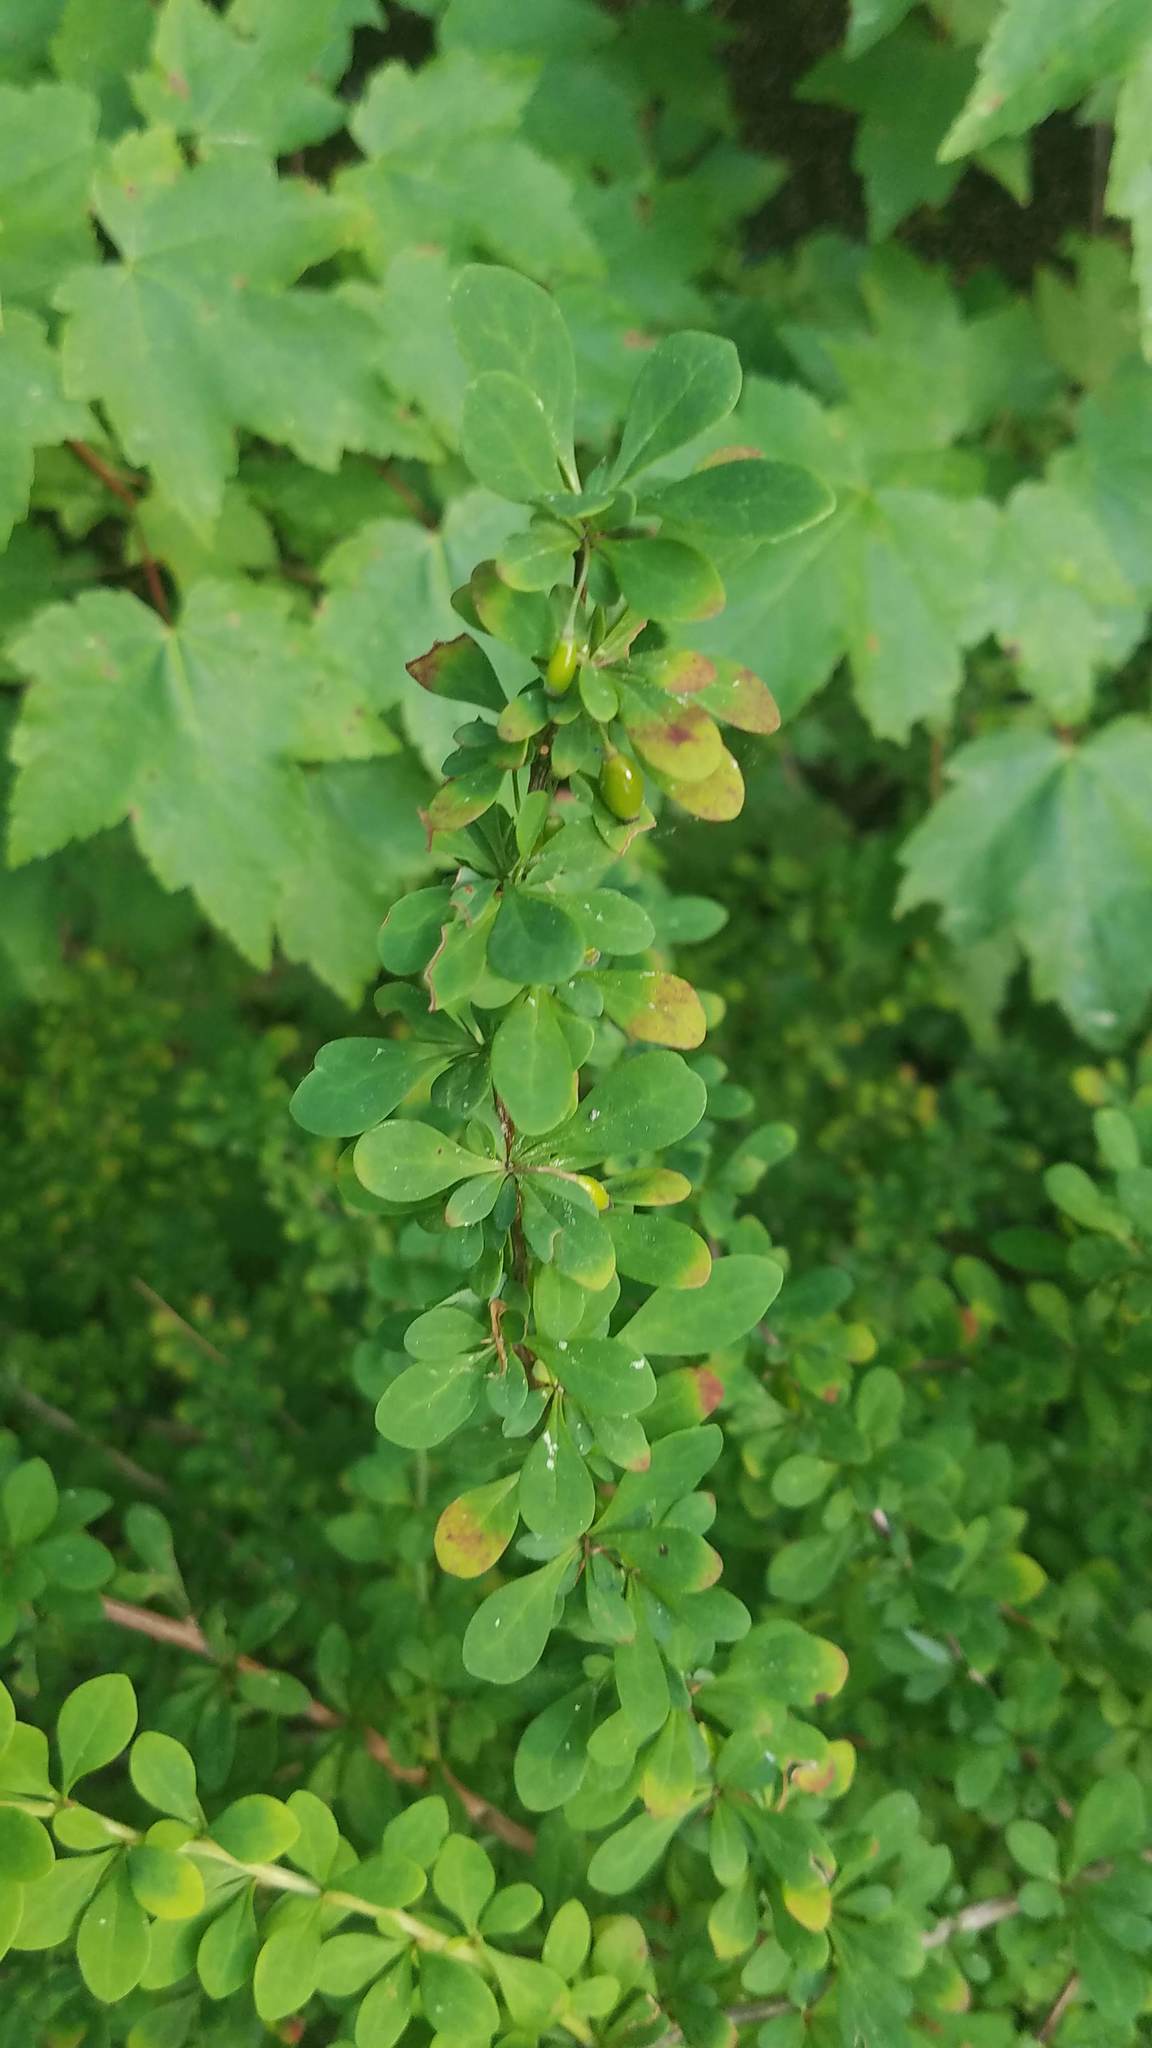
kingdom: Plantae
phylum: Tracheophyta
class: Magnoliopsida
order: Ranunculales
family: Berberidaceae
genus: Berberis
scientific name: Berberis thunbergii
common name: Japanese barberry
